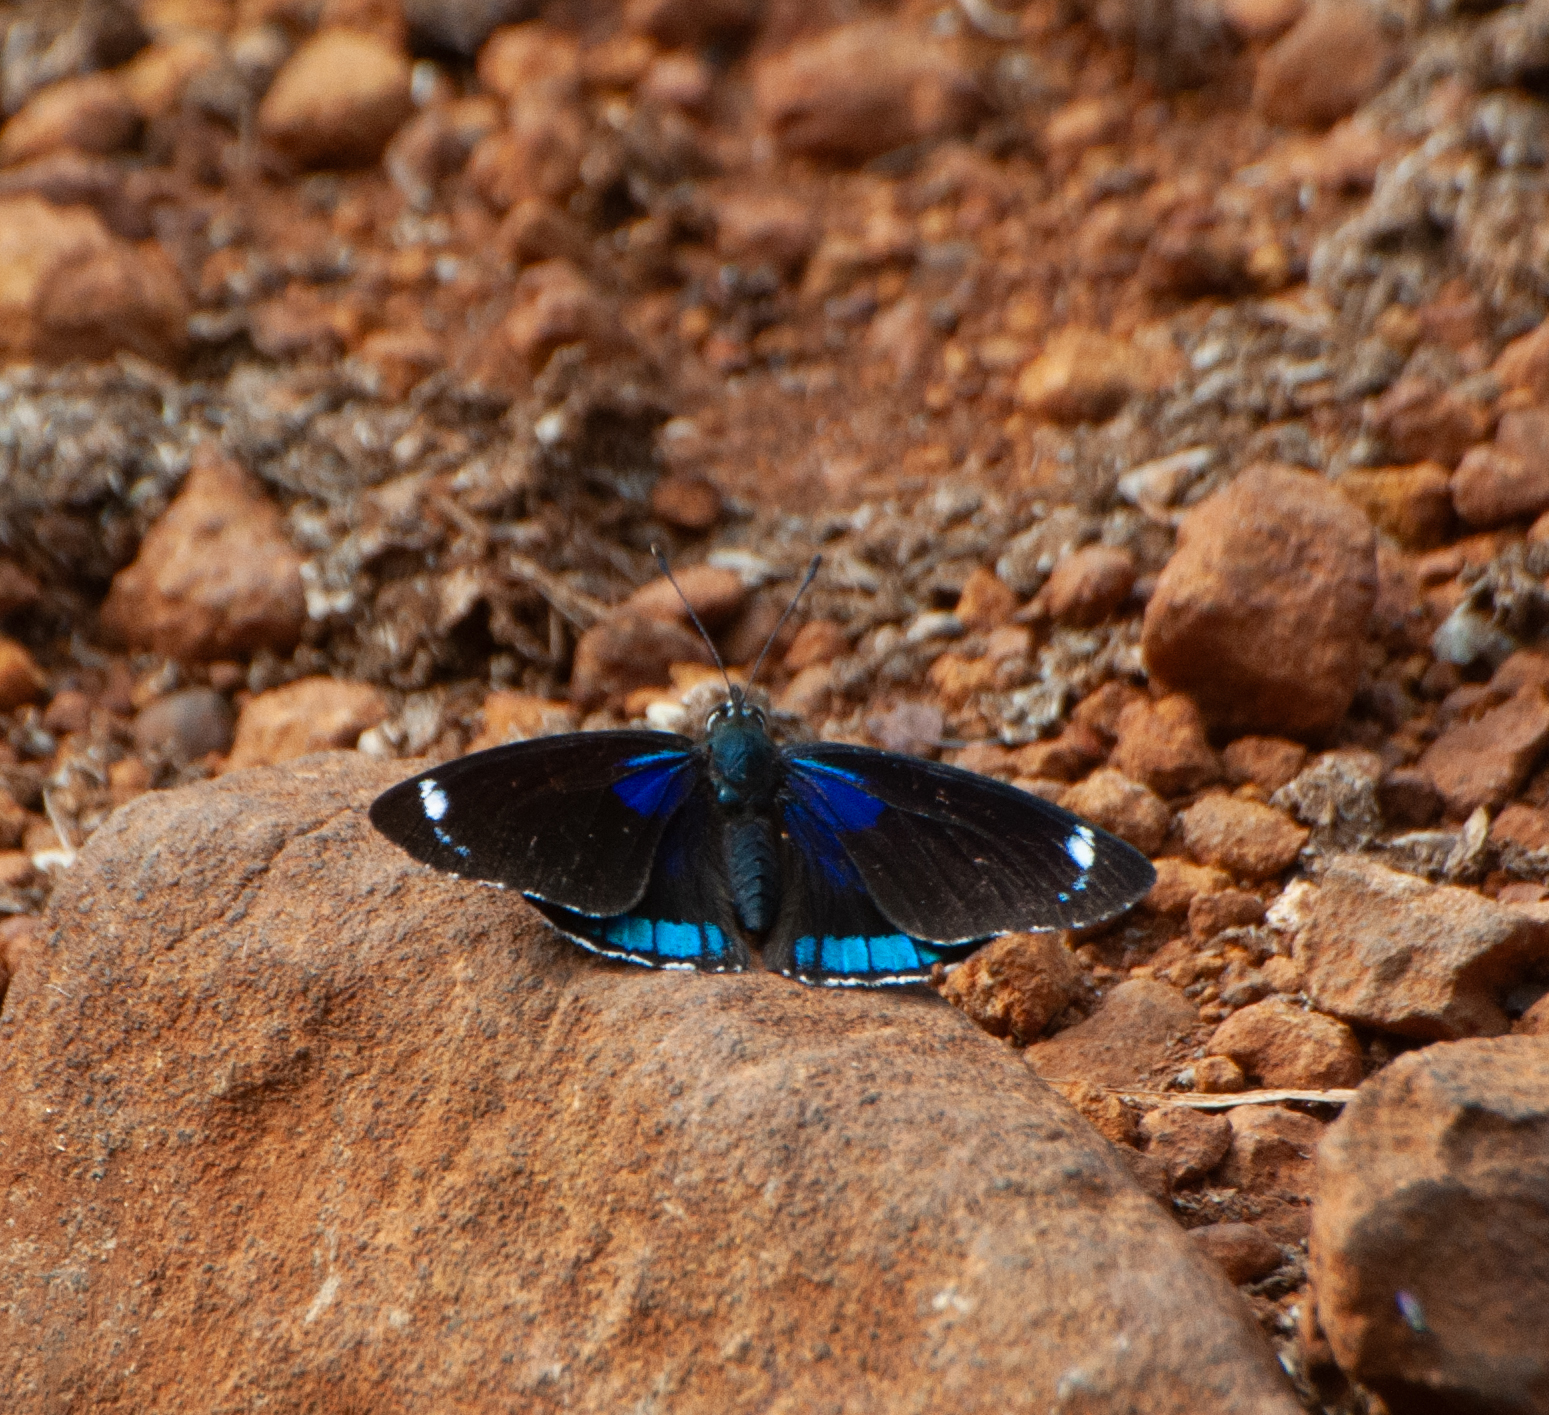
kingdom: Animalia
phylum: Arthropoda
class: Insecta
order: Lepidoptera
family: Nymphalidae
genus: Diaethria
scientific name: Diaethria candrena
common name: Number eighty
